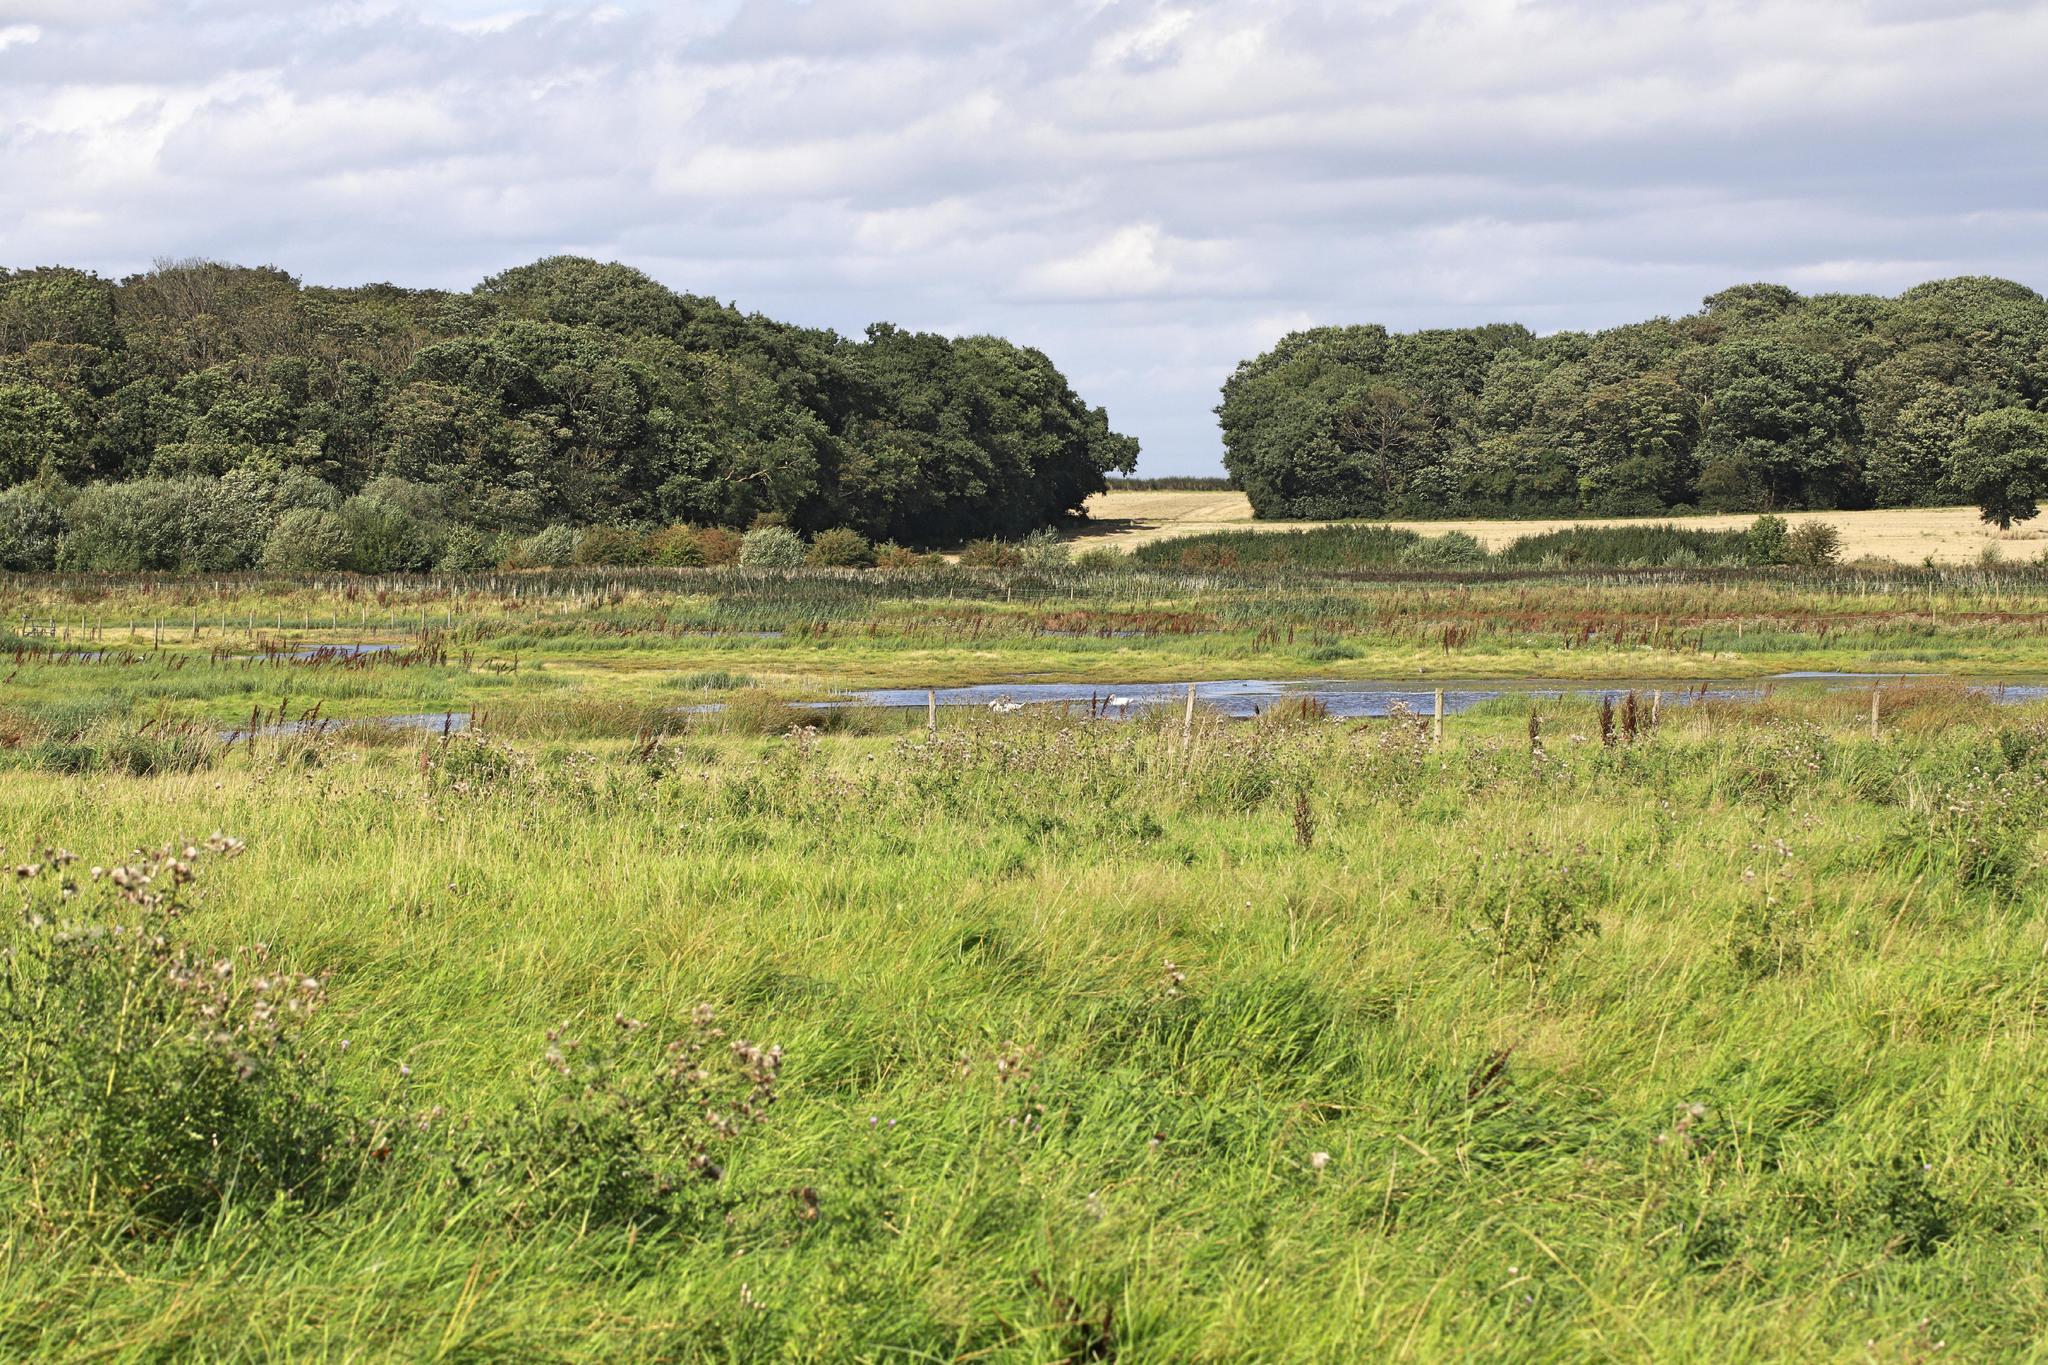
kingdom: Animalia
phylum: Chordata
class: Aves
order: Anseriformes
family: Anatidae
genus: Cygnus
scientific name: Cygnus olor
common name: Mute swan
